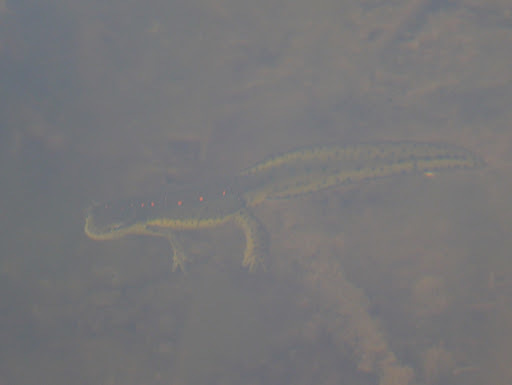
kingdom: Animalia
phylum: Chordata
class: Amphibia
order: Caudata
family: Salamandridae
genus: Notophthalmus
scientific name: Notophthalmus viridescens
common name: Eastern newt
